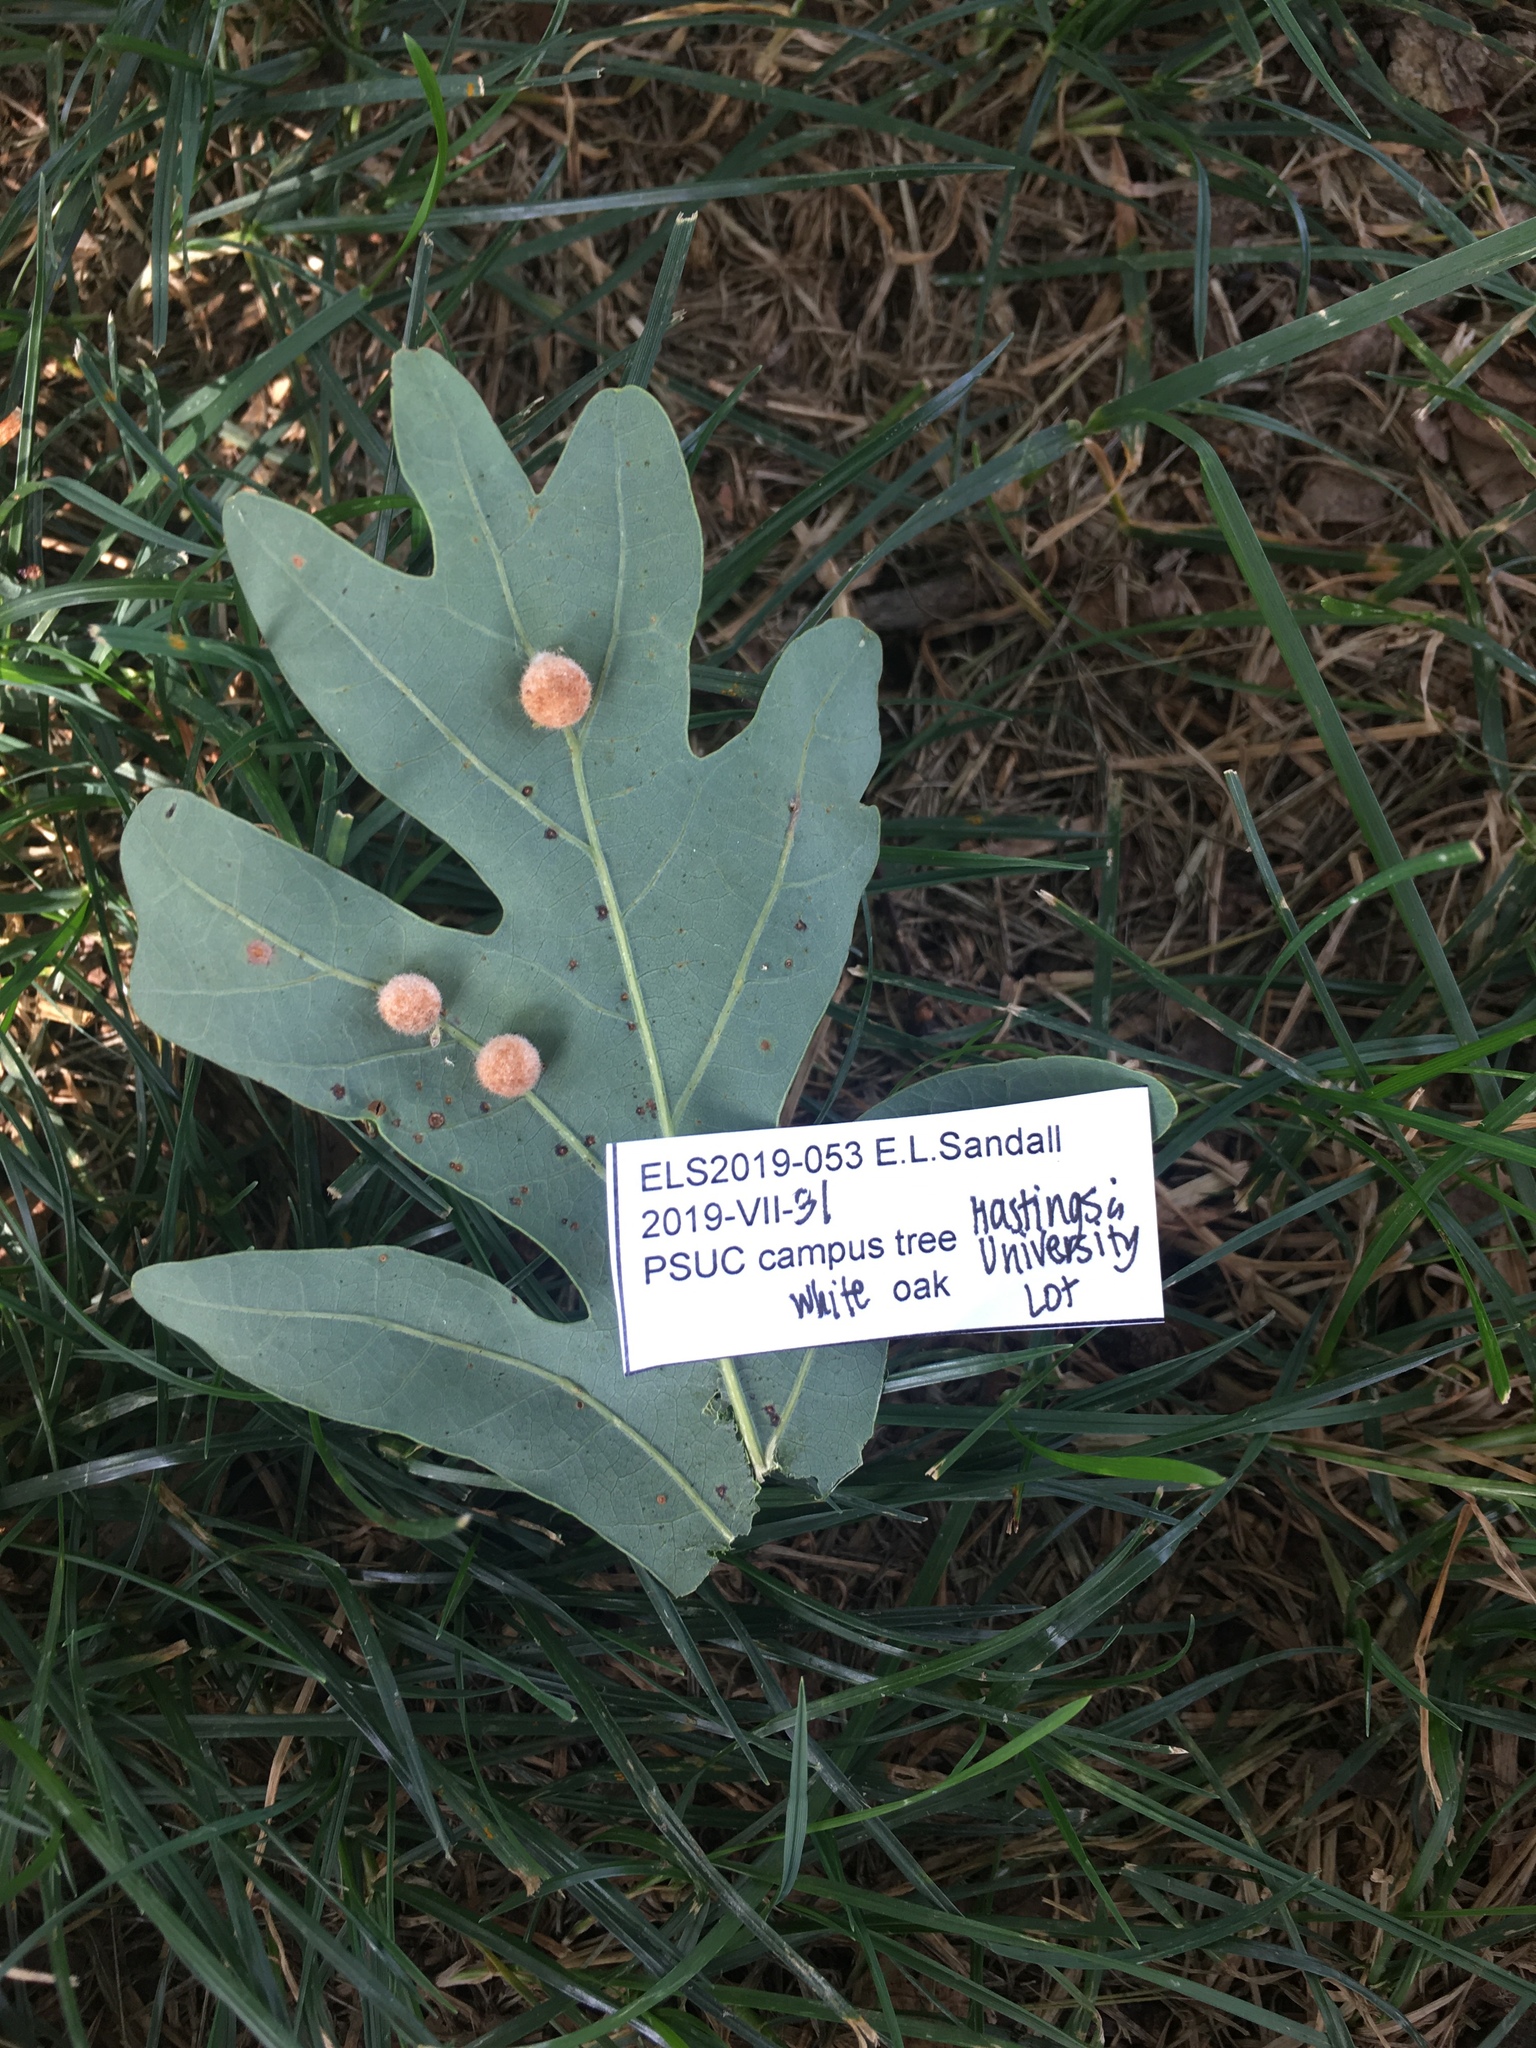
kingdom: Animalia
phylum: Arthropoda
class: Insecta
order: Hymenoptera
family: Cynipidae
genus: Philonix
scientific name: Philonix fulvicollis
